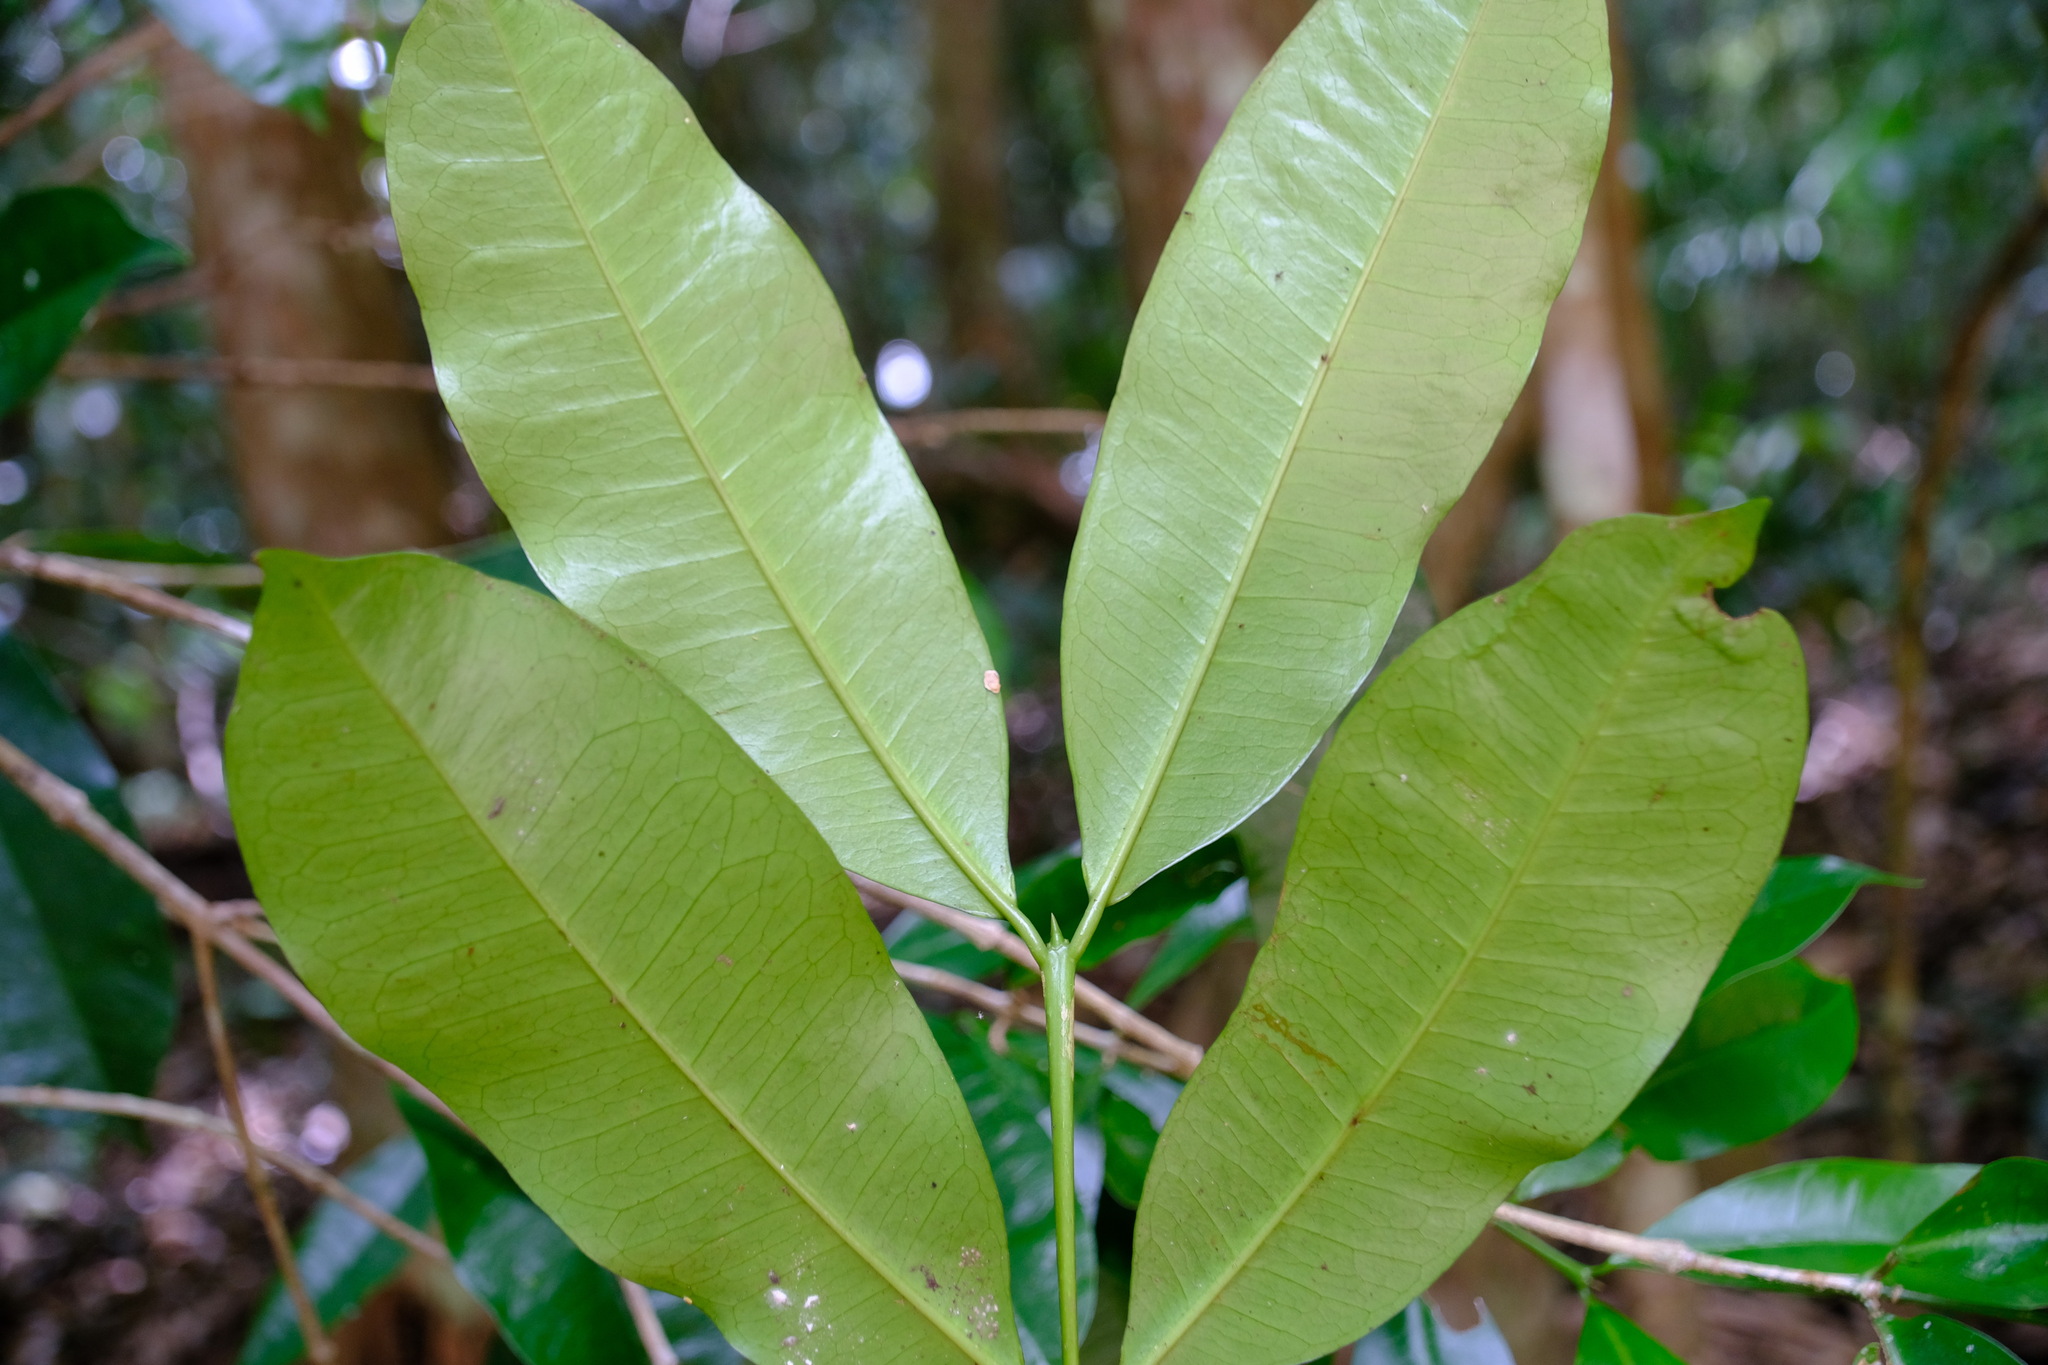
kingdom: Plantae
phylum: Tracheophyta
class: Magnoliopsida
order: Malpighiales
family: Euphorbiaceae
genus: Baloghia
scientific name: Baloghia inophylla
